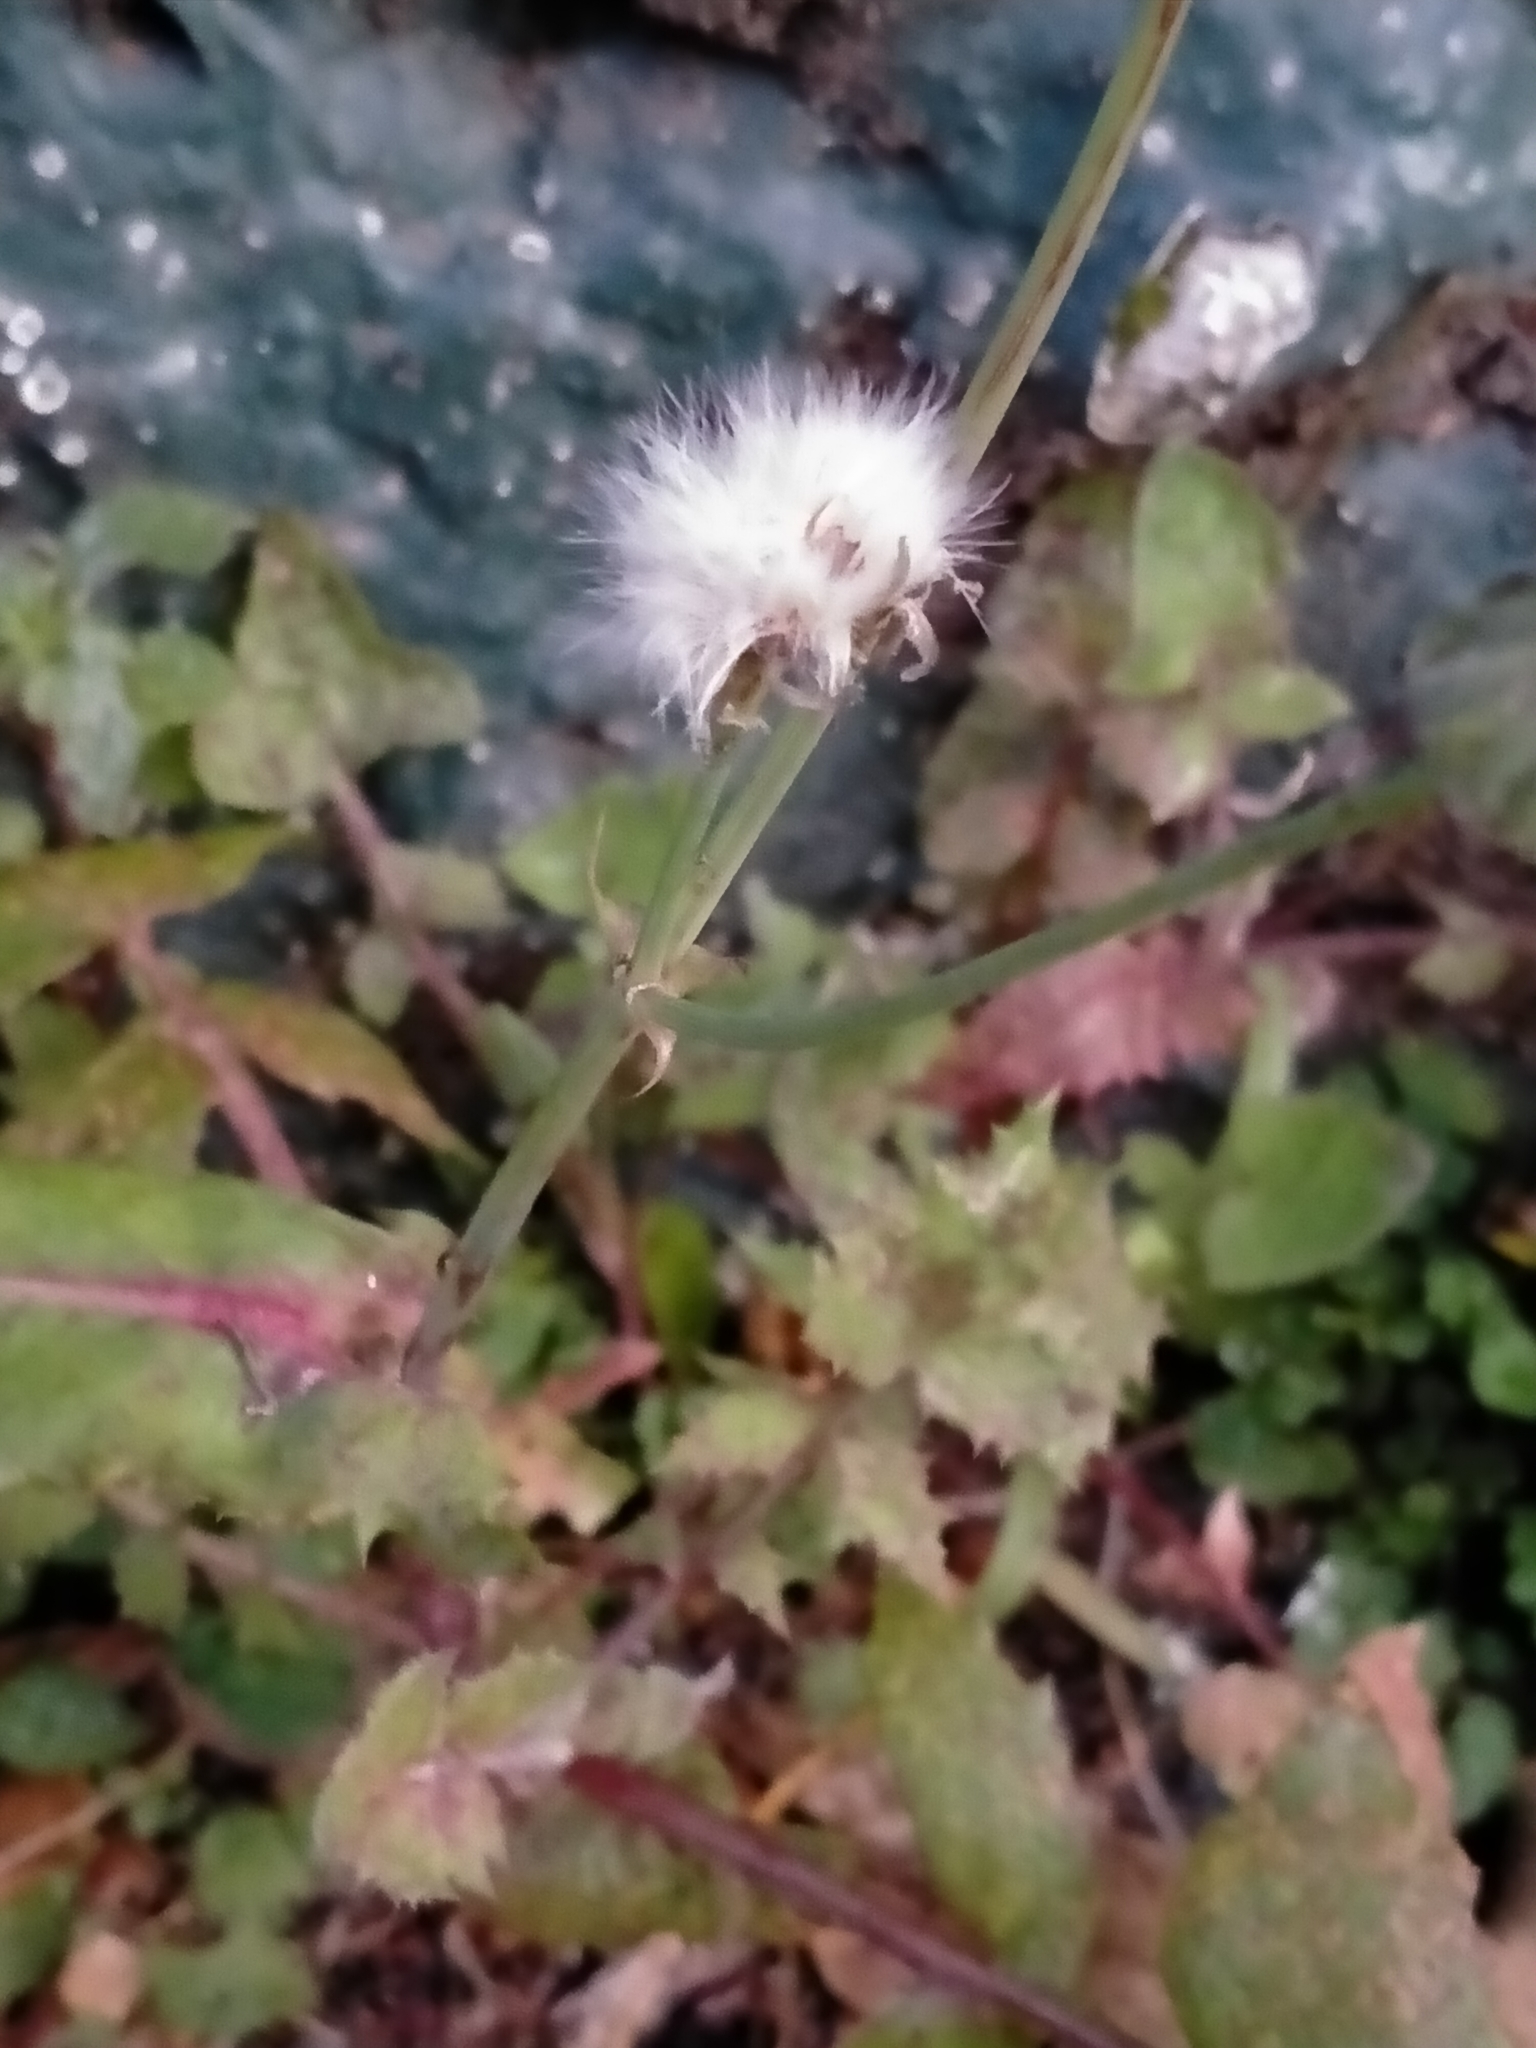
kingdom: Plantae
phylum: Tracheophyta
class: Magnoliopsida
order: Asterales
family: Asteraceae
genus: Sonchus
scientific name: Sonchus oleraceus
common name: Common sowthistle
